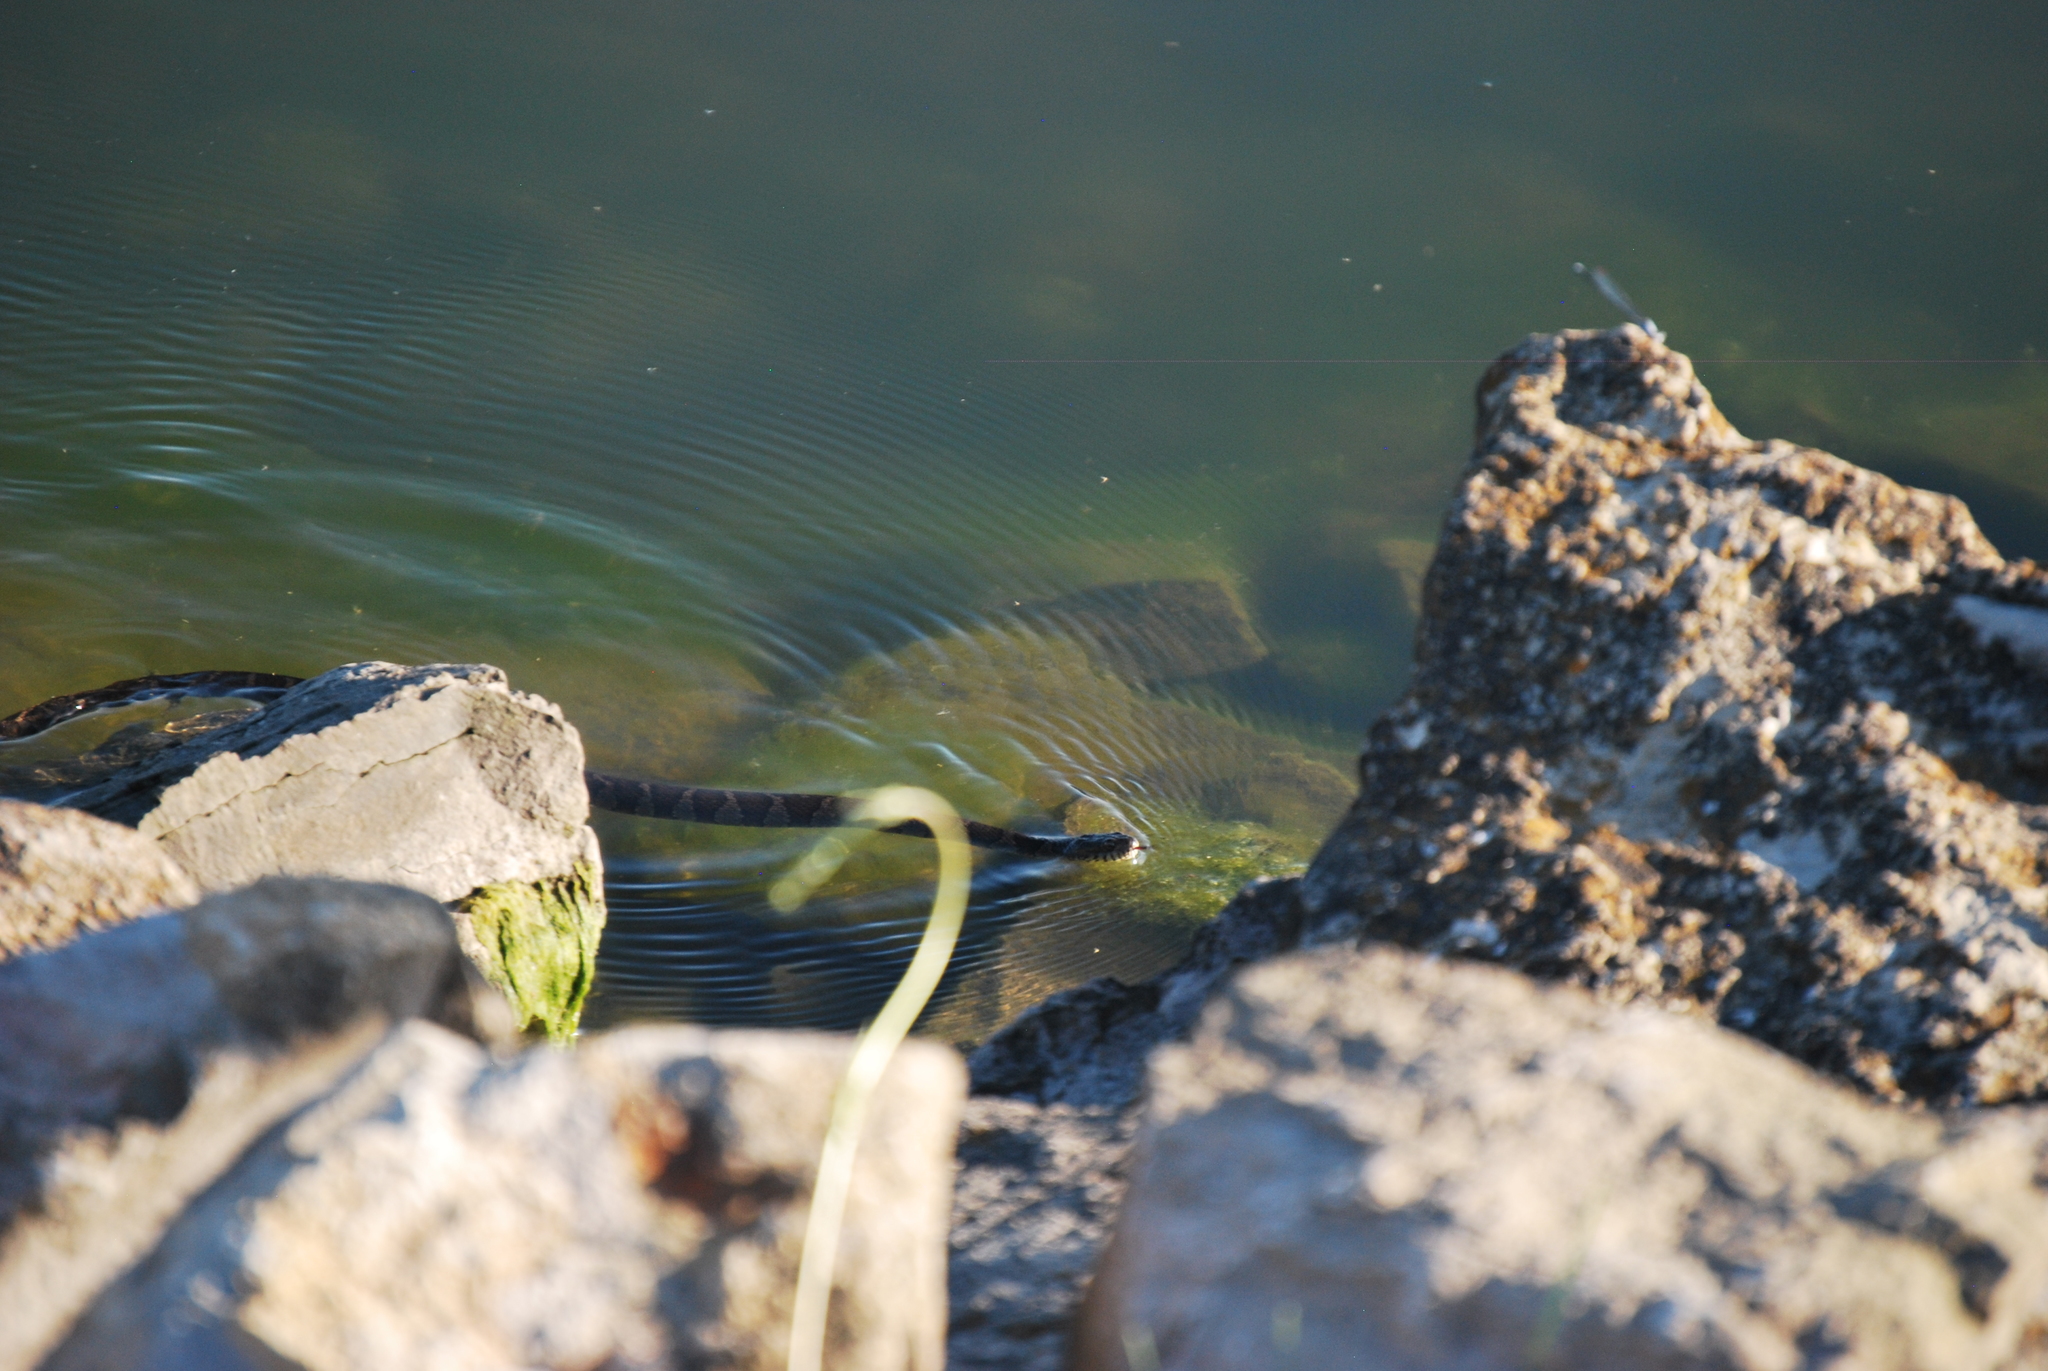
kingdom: Animalia
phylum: Chordata
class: Squamata
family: Colubridae
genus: Nerodia
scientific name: Nerodia sipedon
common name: Northern water snake
